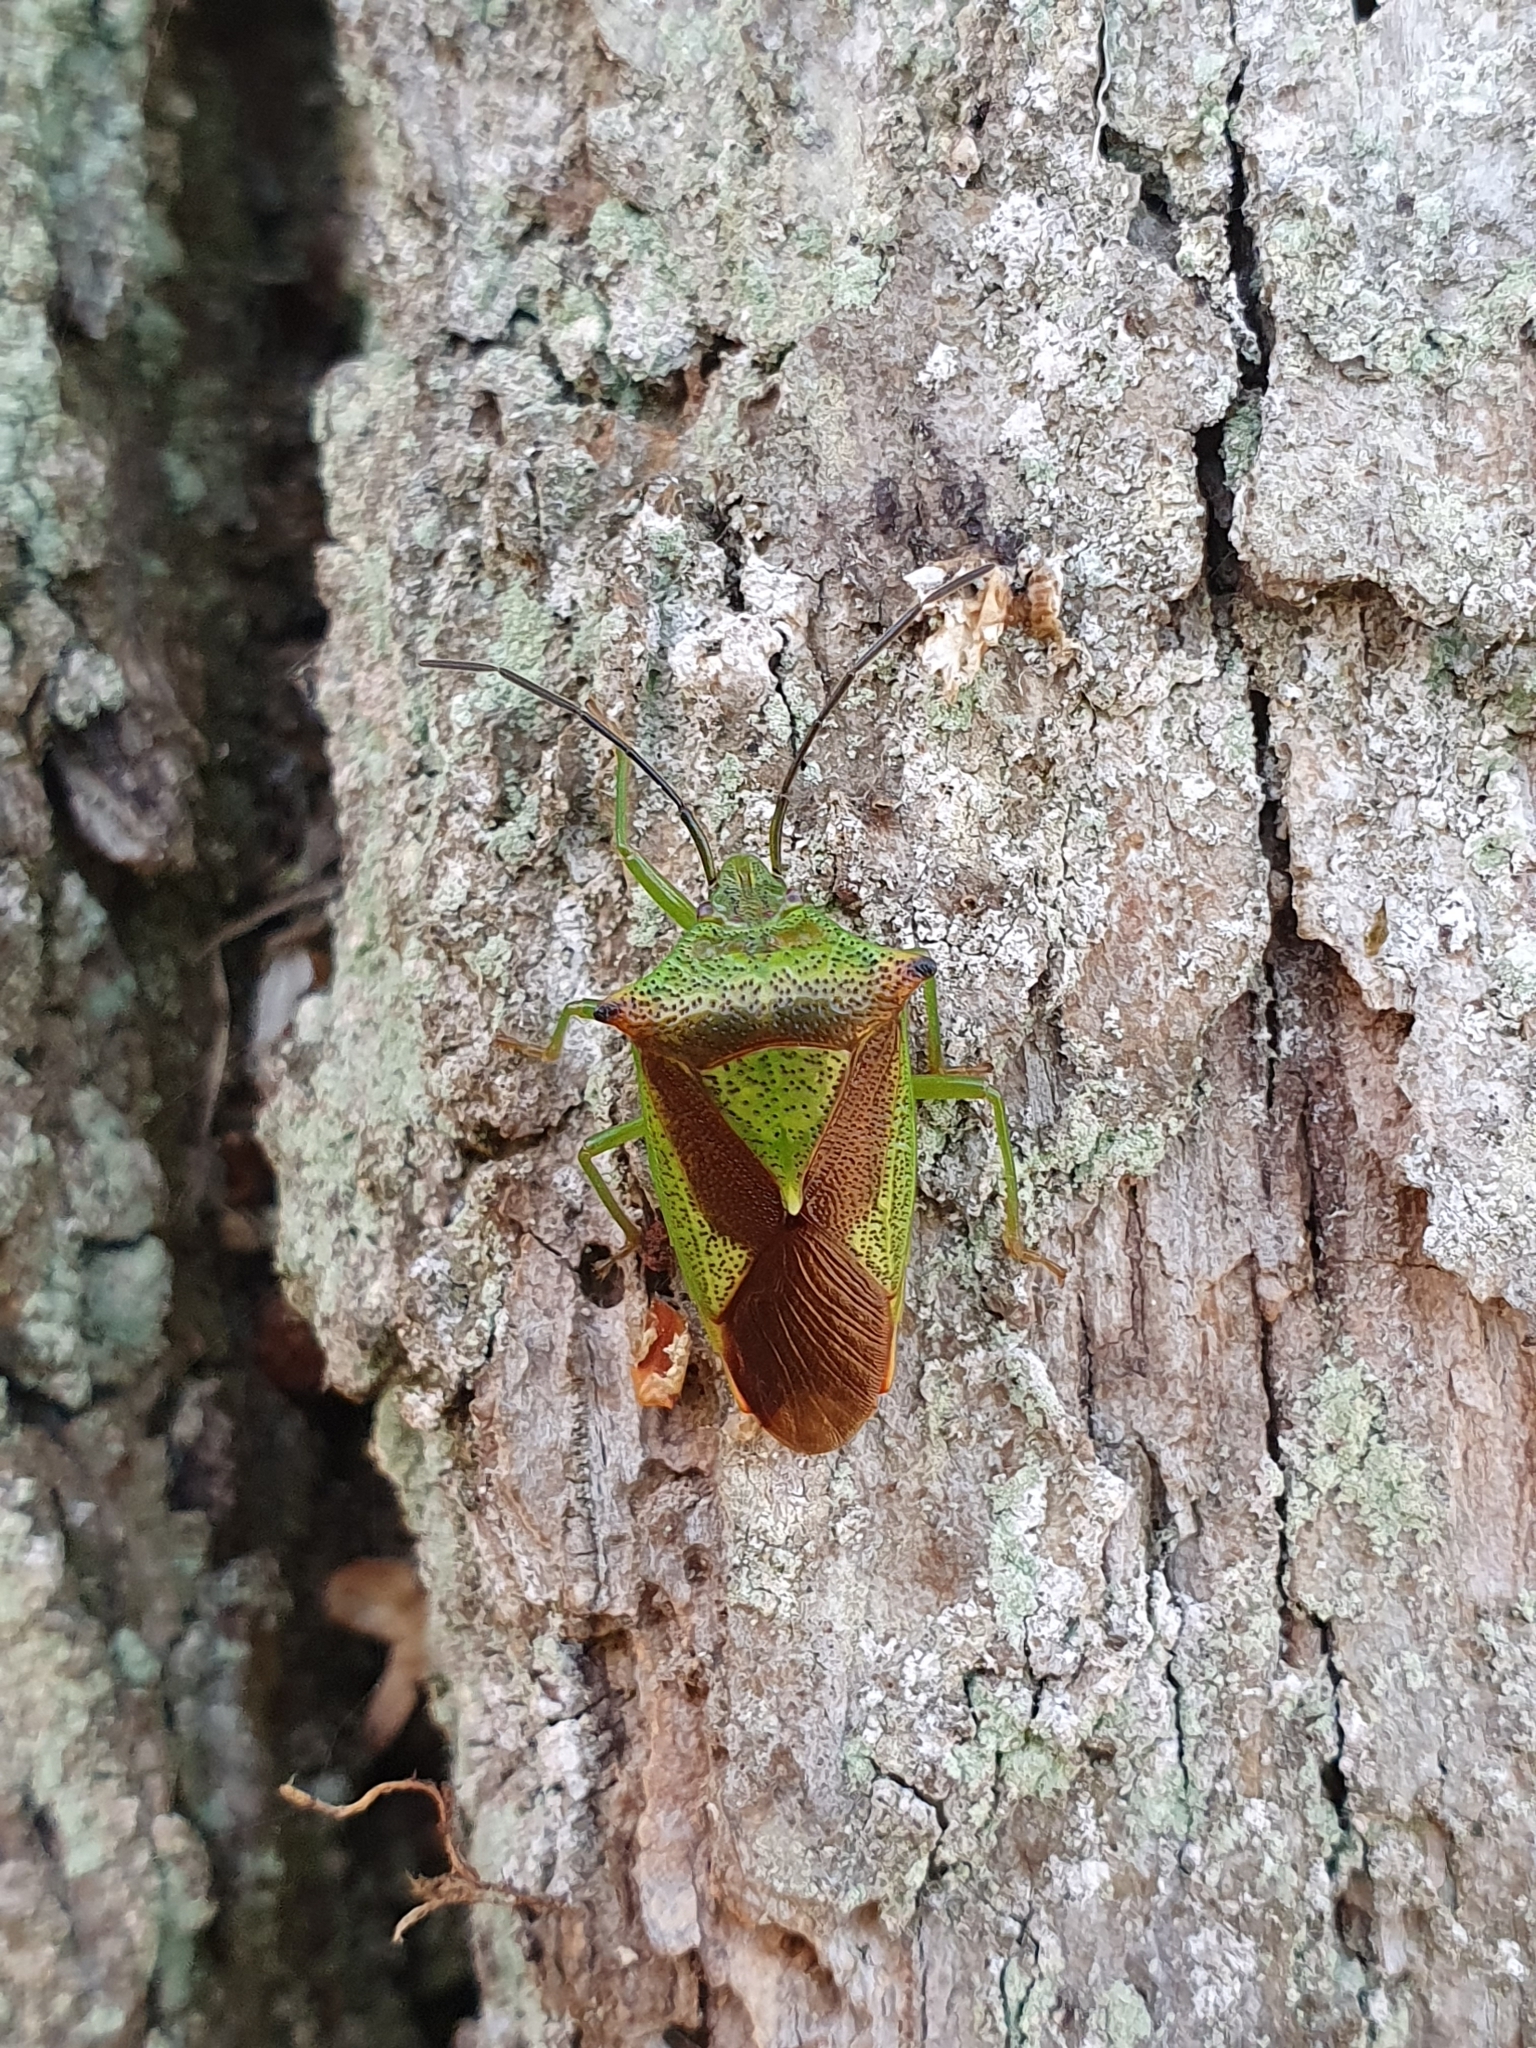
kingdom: Animalia
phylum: Arthropoda
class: Insecta
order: Hemiptera
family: Acanthosomatidae
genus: Acanthosoma
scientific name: Acanthosoma haemorrhoidale
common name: Hawthorn shieldbug
